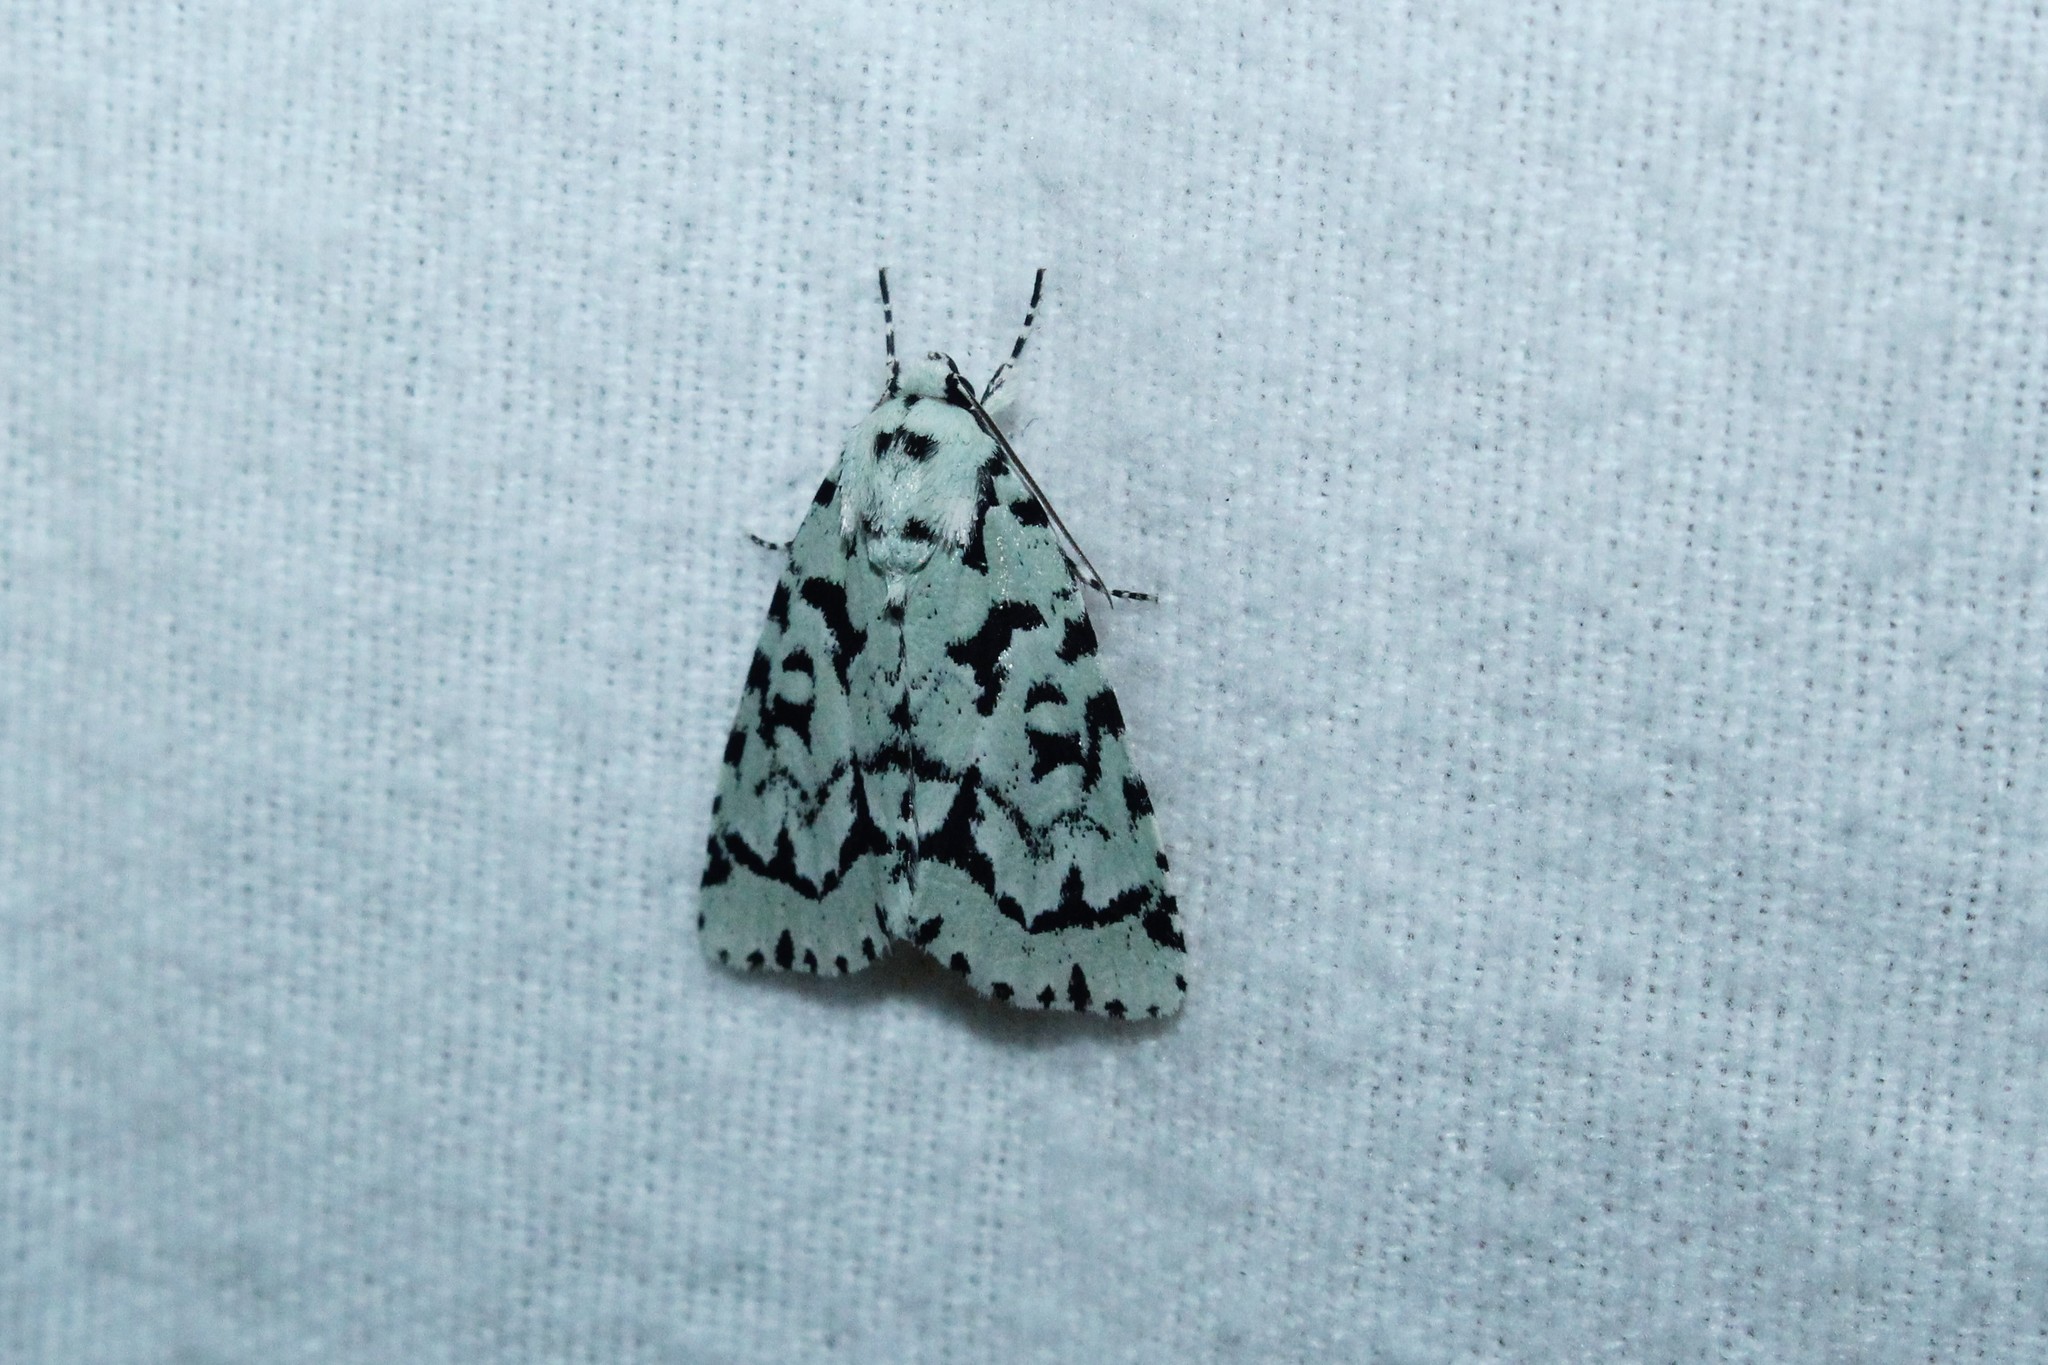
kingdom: Animalia
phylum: Arthropoda
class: Insecta
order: Lepidoptera
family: Noctuidae
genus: Acronicta
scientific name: Acronicta fallax
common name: Green marvel
